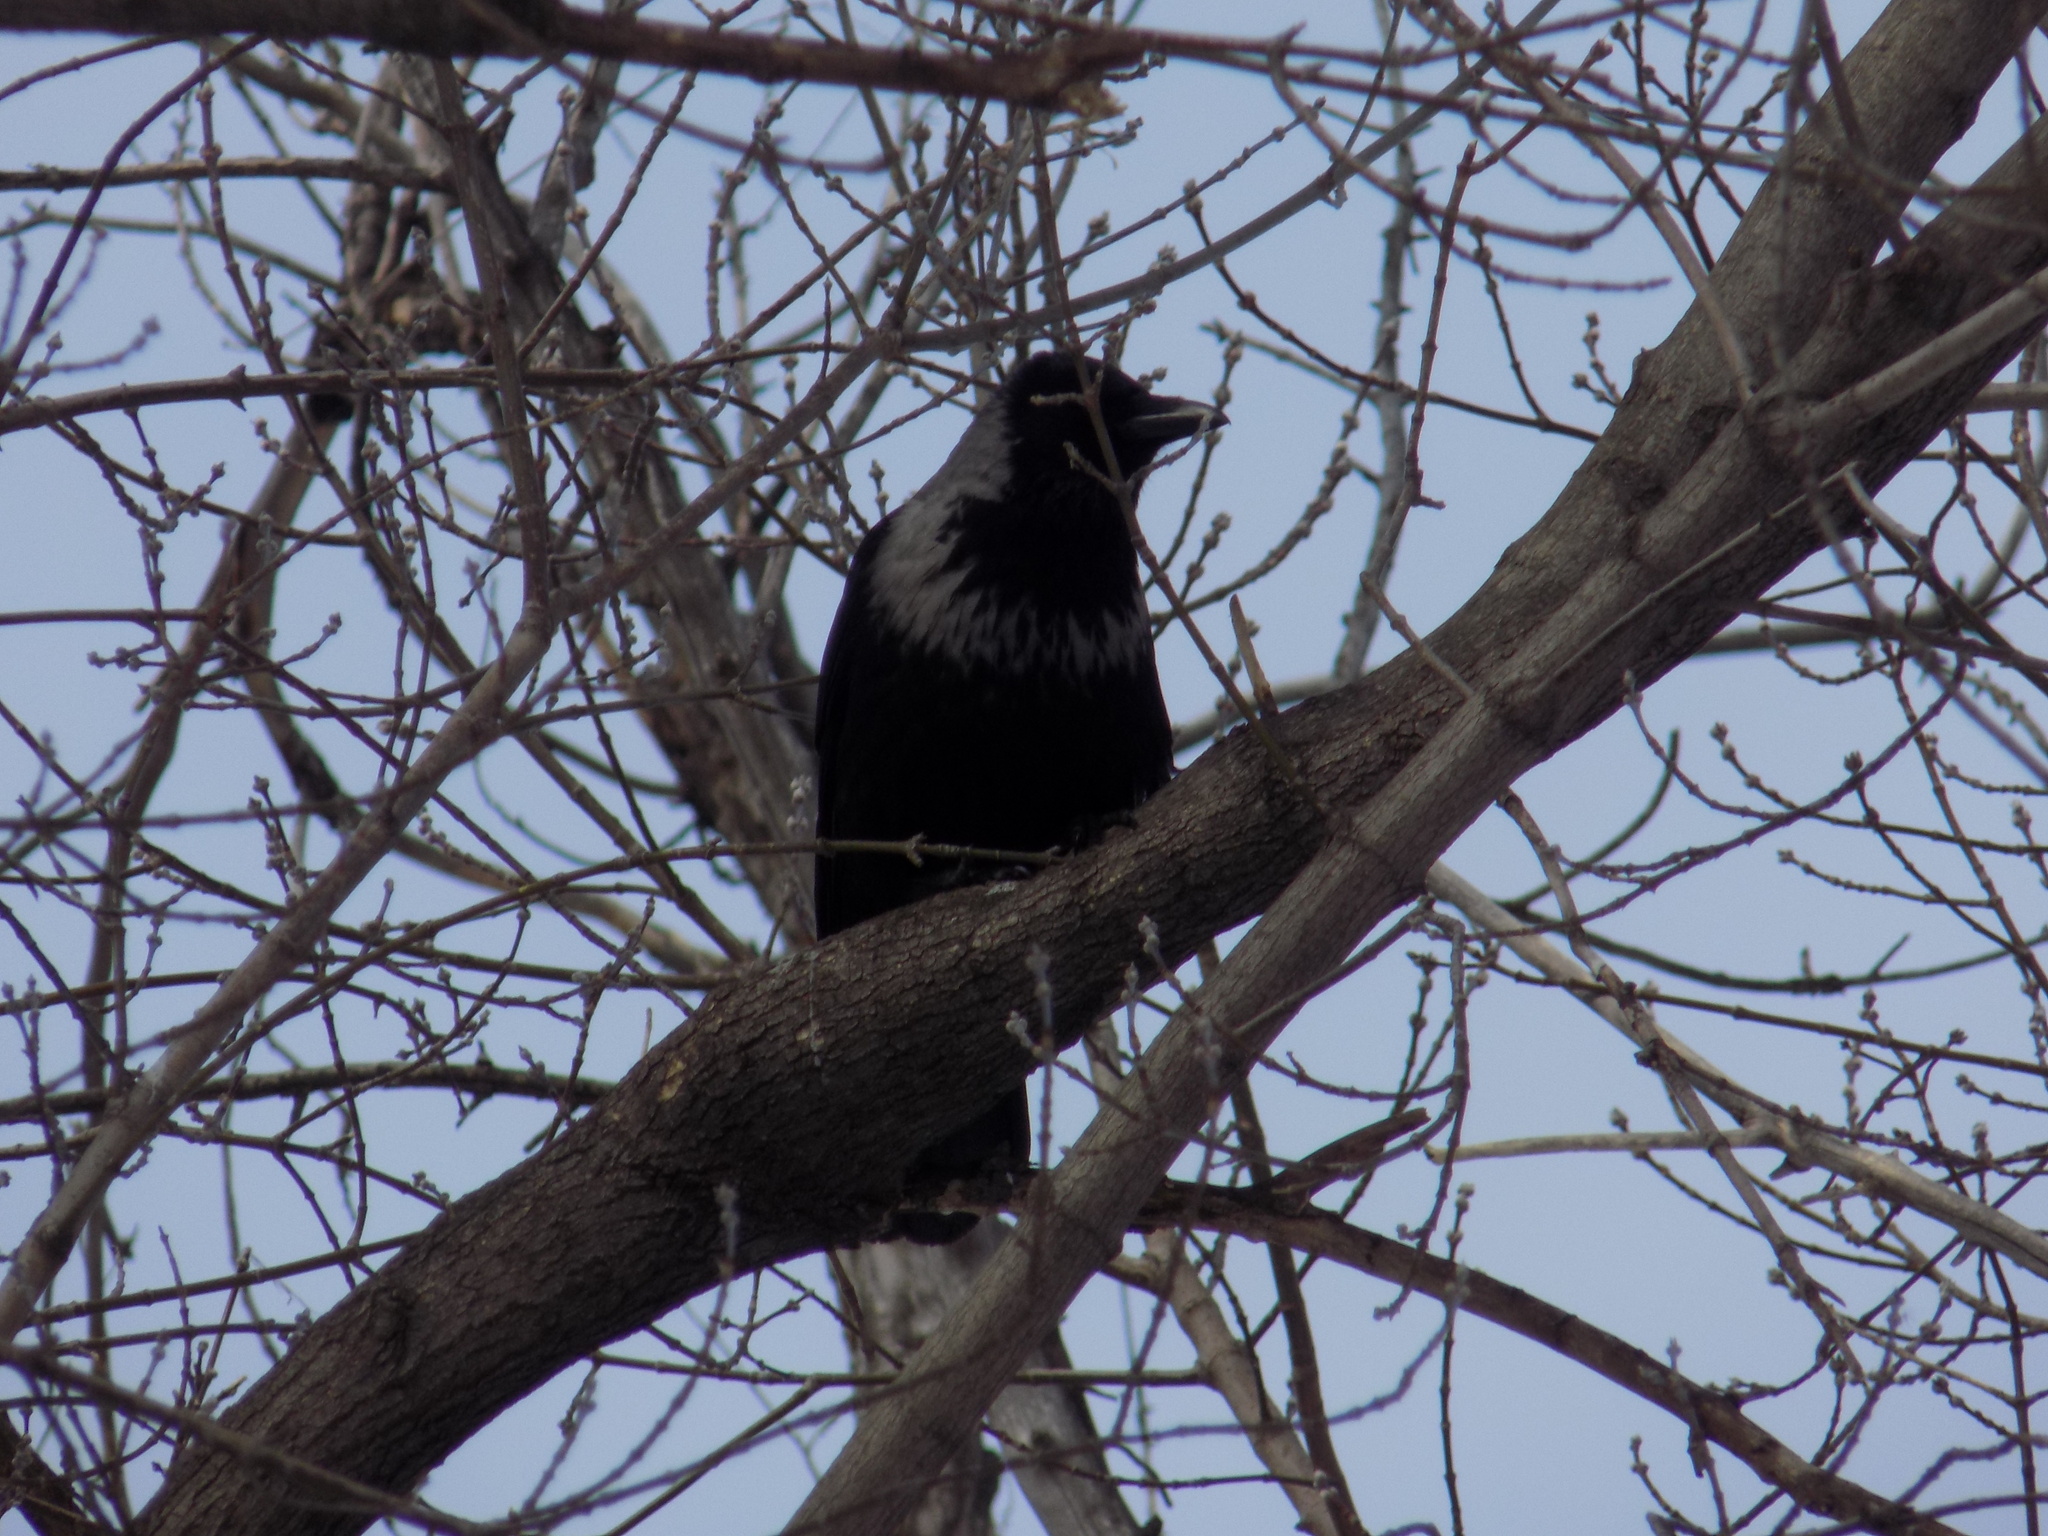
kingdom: Animalia
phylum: Chordata
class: Aves
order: Passeriformes
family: Corvidae
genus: Corvus
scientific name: Corvus
